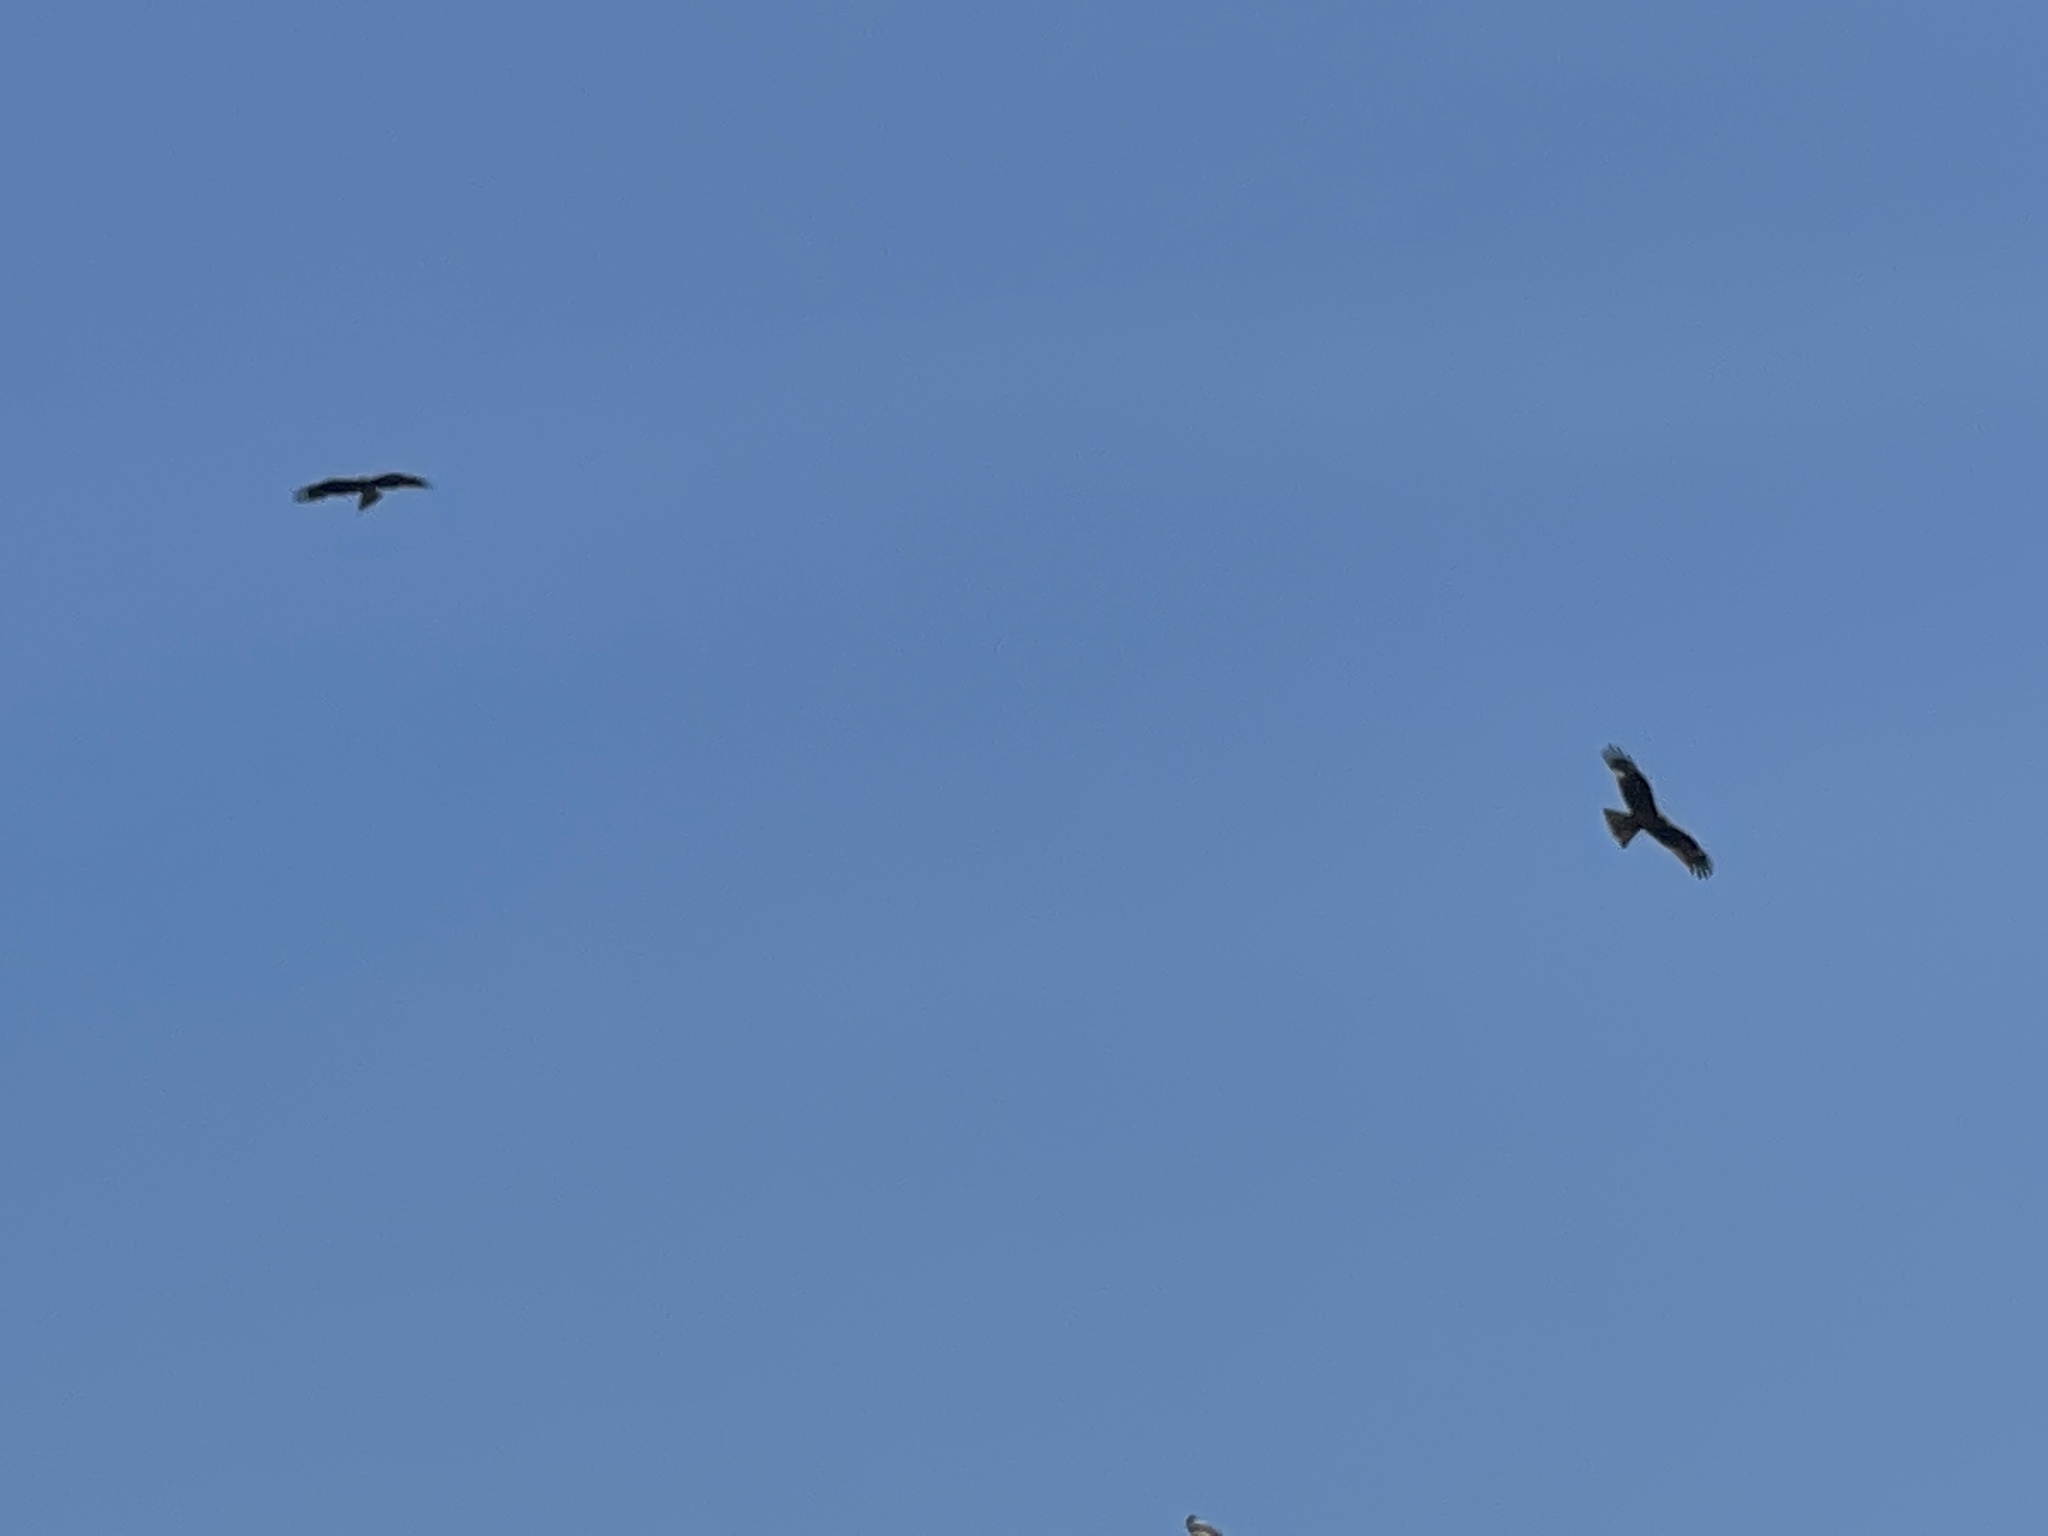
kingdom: Animalia
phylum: Chordata
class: Aves
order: Accipitriformes
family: Accipitridae
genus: Milvus
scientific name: Milvus migrans
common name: Black kite
